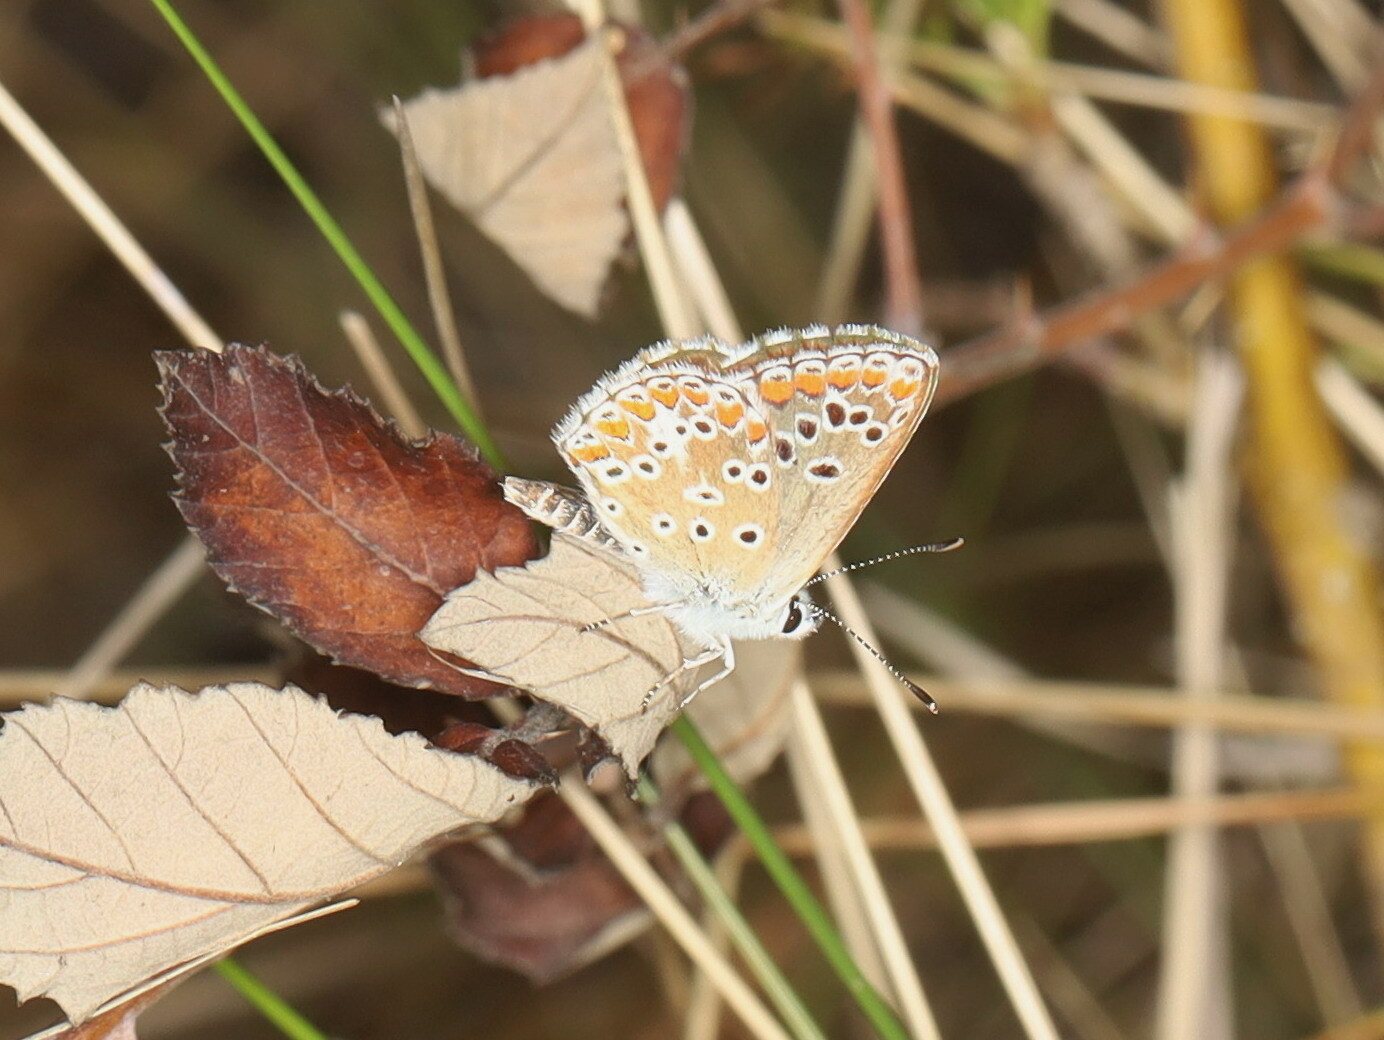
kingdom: Animalia
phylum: Arthropoda
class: Insecta
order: Lepidoptera
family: Lycaenidae
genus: Aricia
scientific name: Aricia agestis
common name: Brown argus
